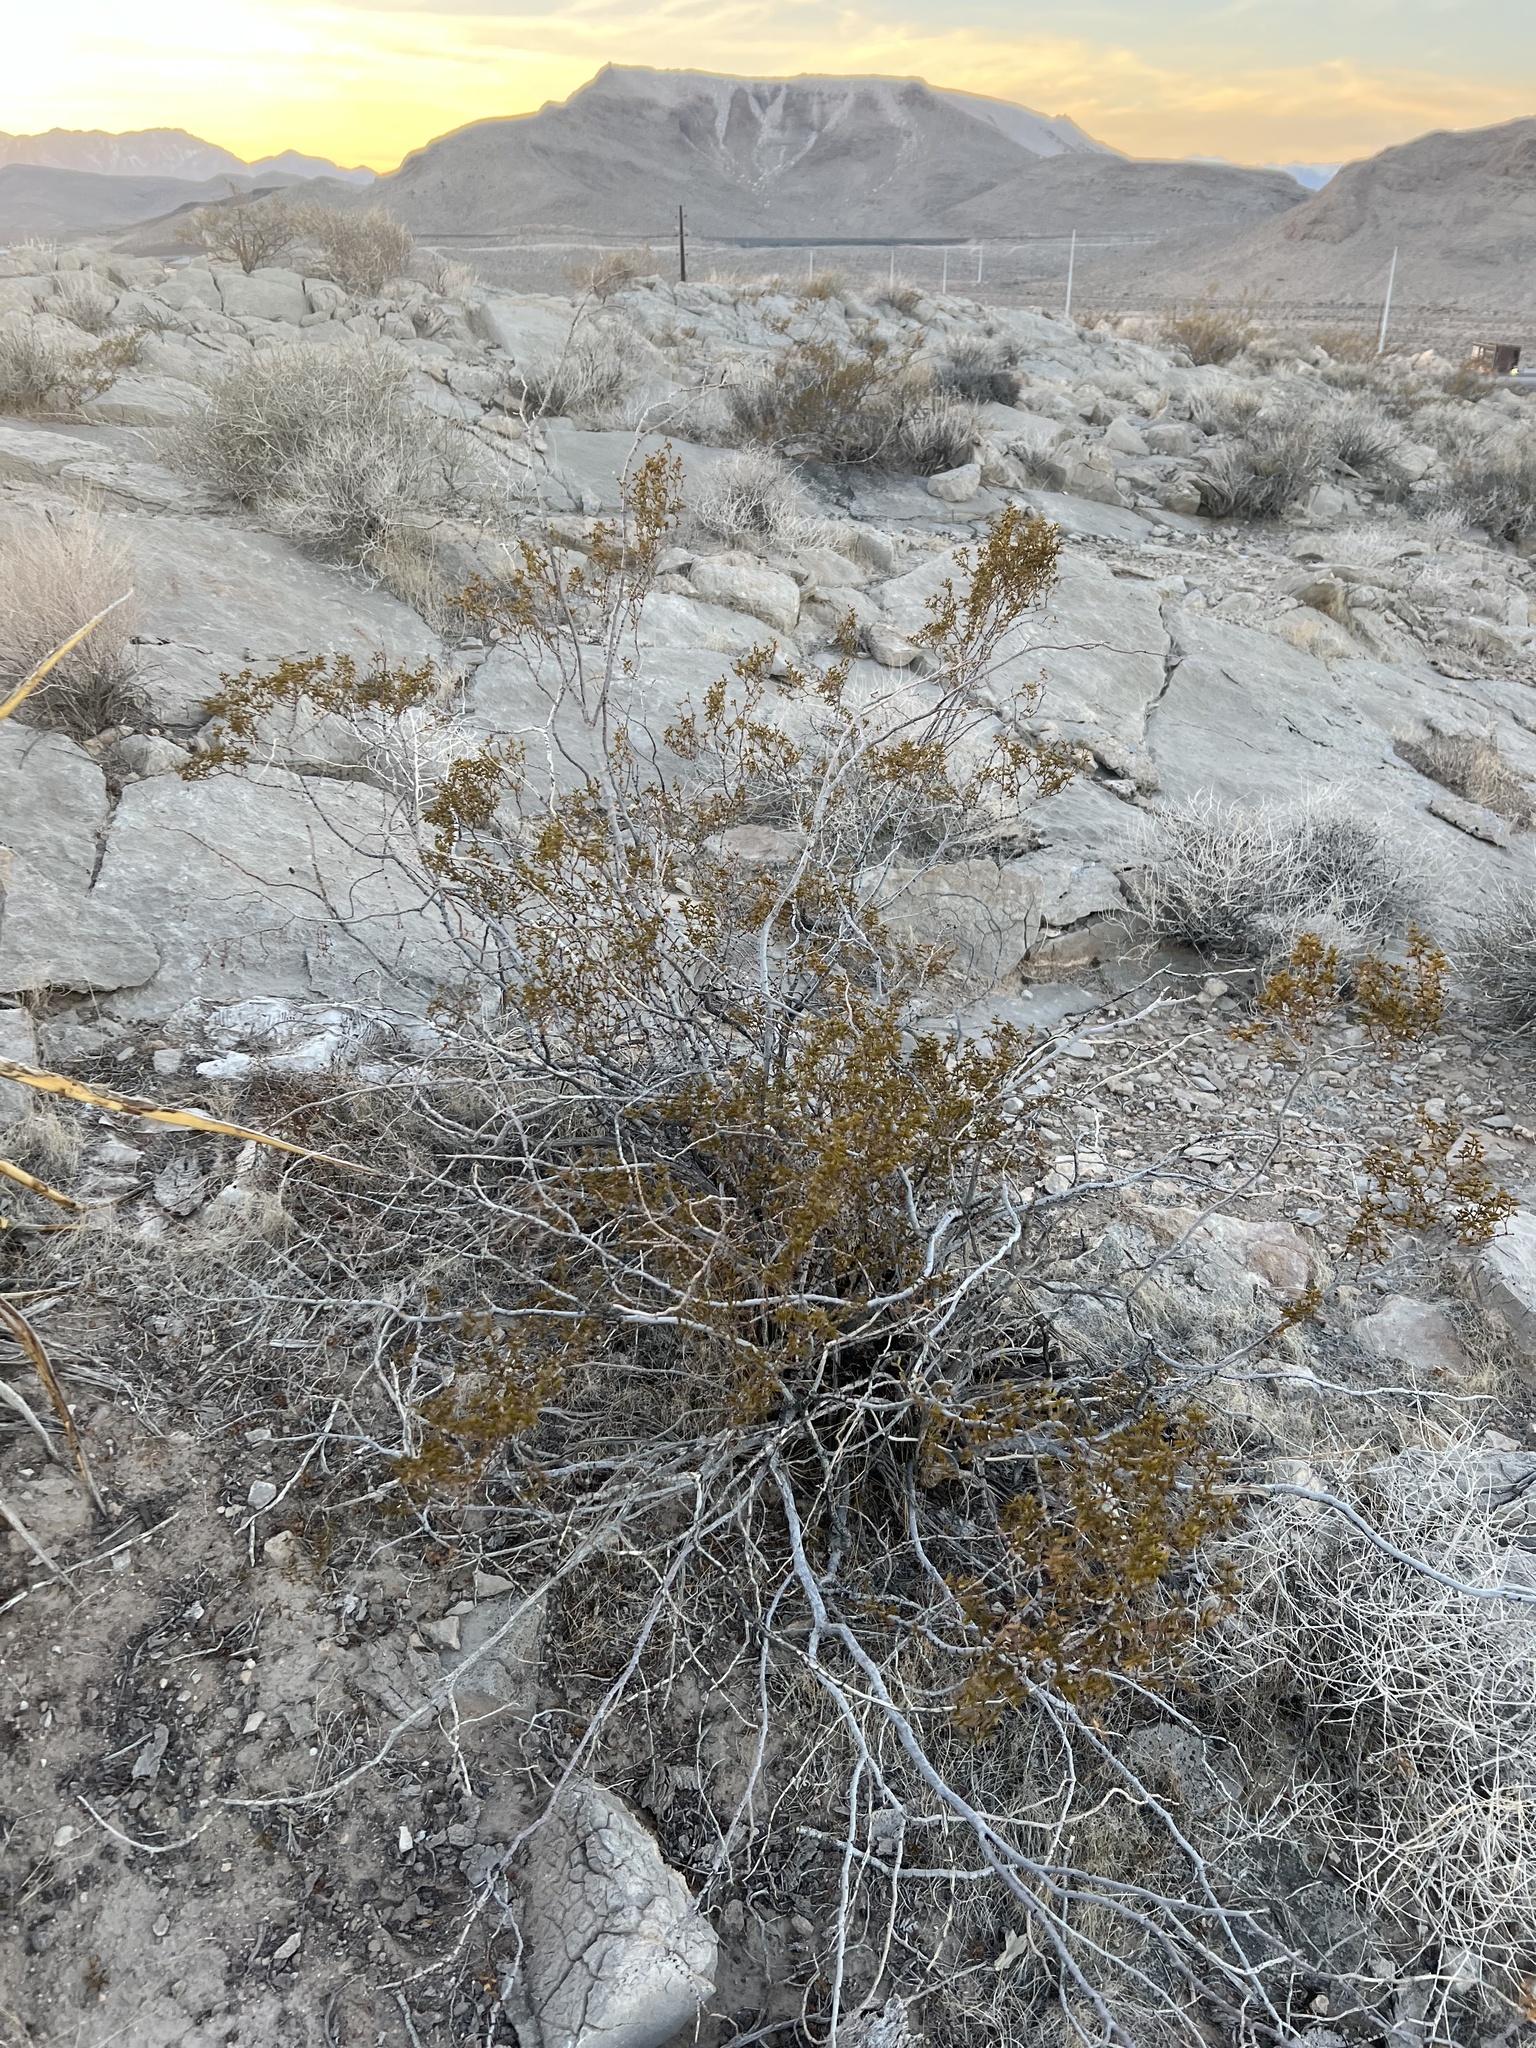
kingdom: Plantae
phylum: Tracheophyta
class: Magnoliopsida
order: Zygophyllales
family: Zygophyllaceae
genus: Larrea
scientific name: Larrea tridentata
